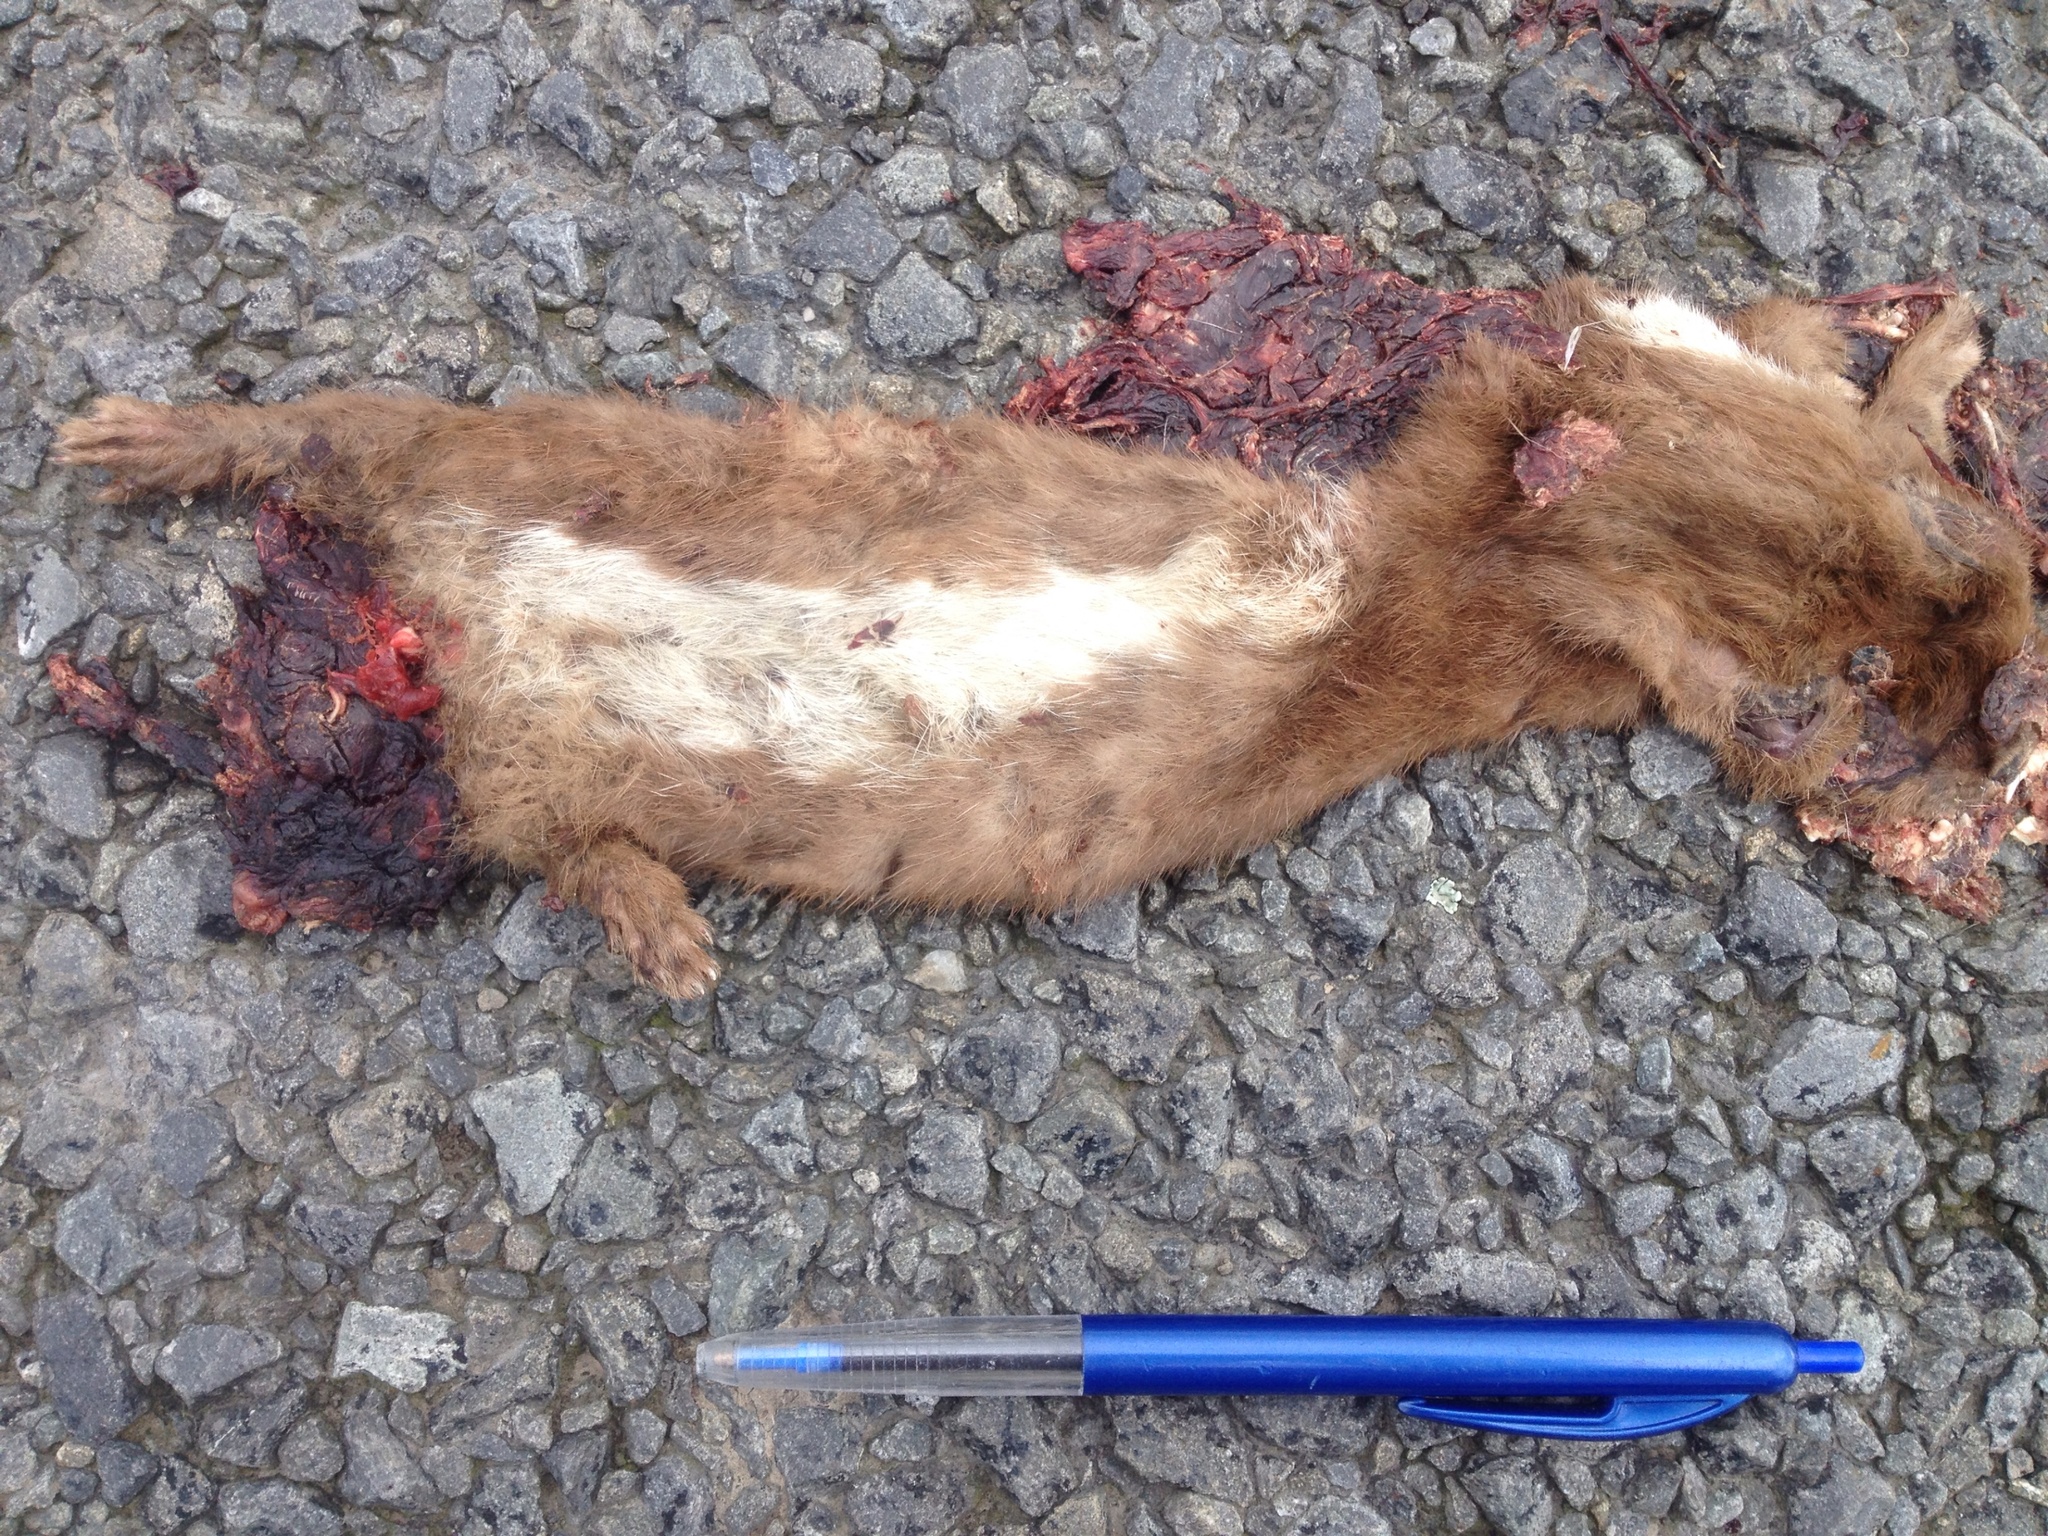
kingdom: Animalia
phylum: Chordata
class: Mammalia
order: Carnivora
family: Mustelidae
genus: Mustela
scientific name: Mustela nivalis
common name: Least weasel
